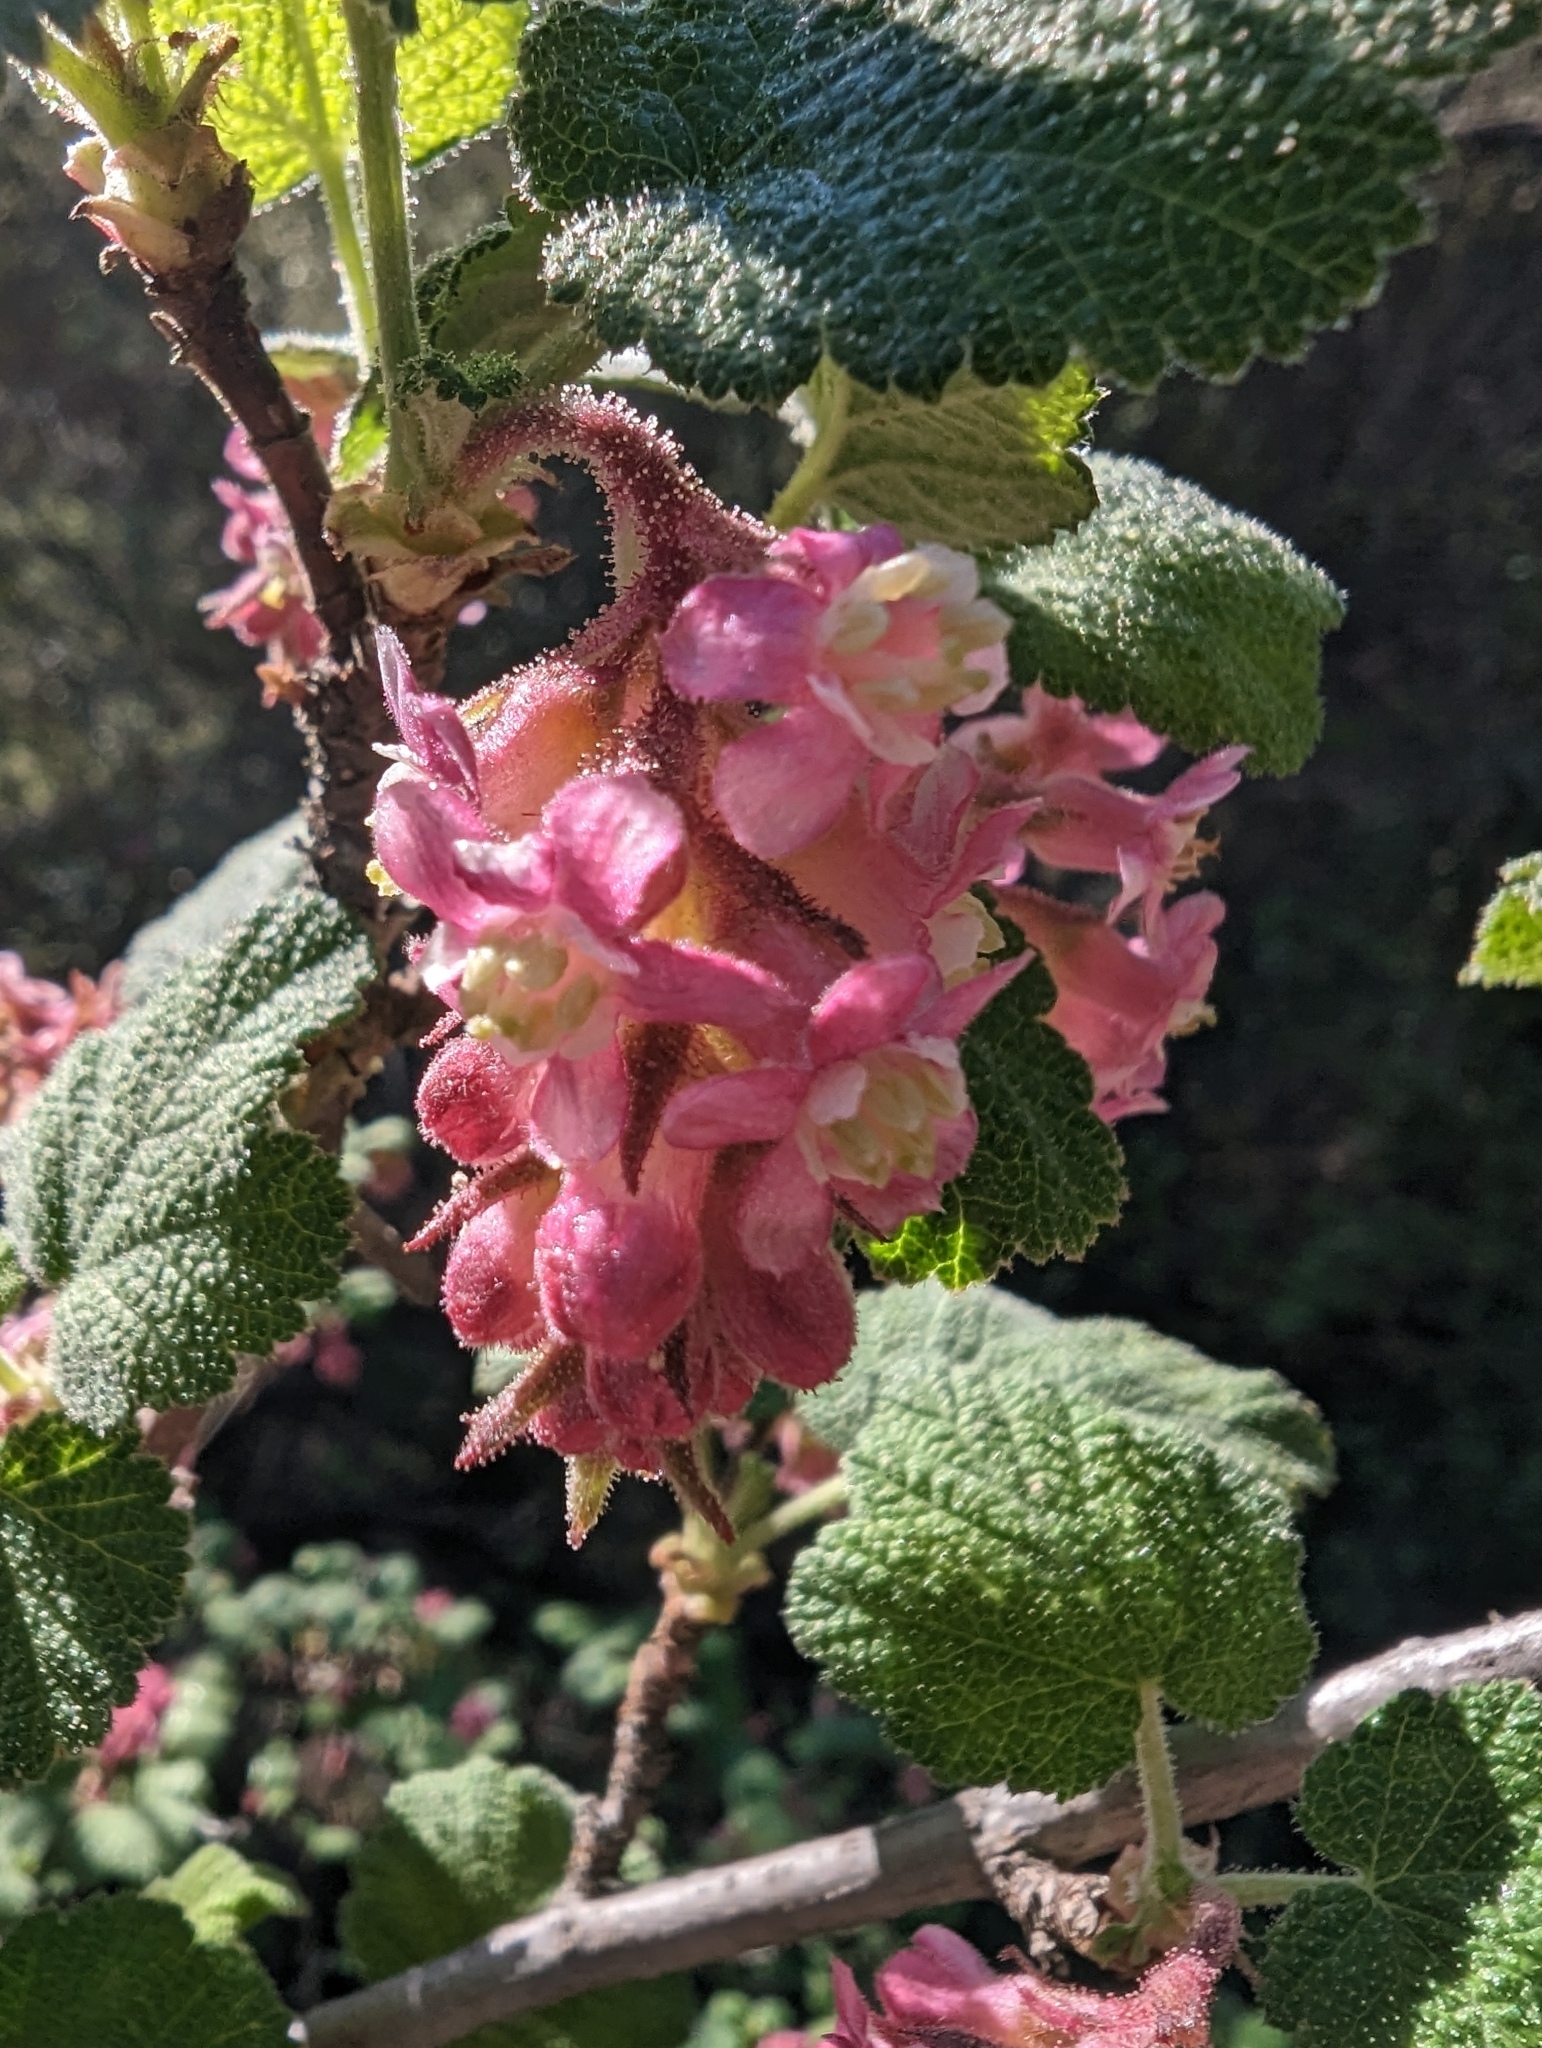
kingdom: Plantae
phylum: Tracheophyta
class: Magnoliopsida
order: Saxifragales
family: Grossulariaceae
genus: Ribes
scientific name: Ribes malvaceum
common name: Chaparral currant
